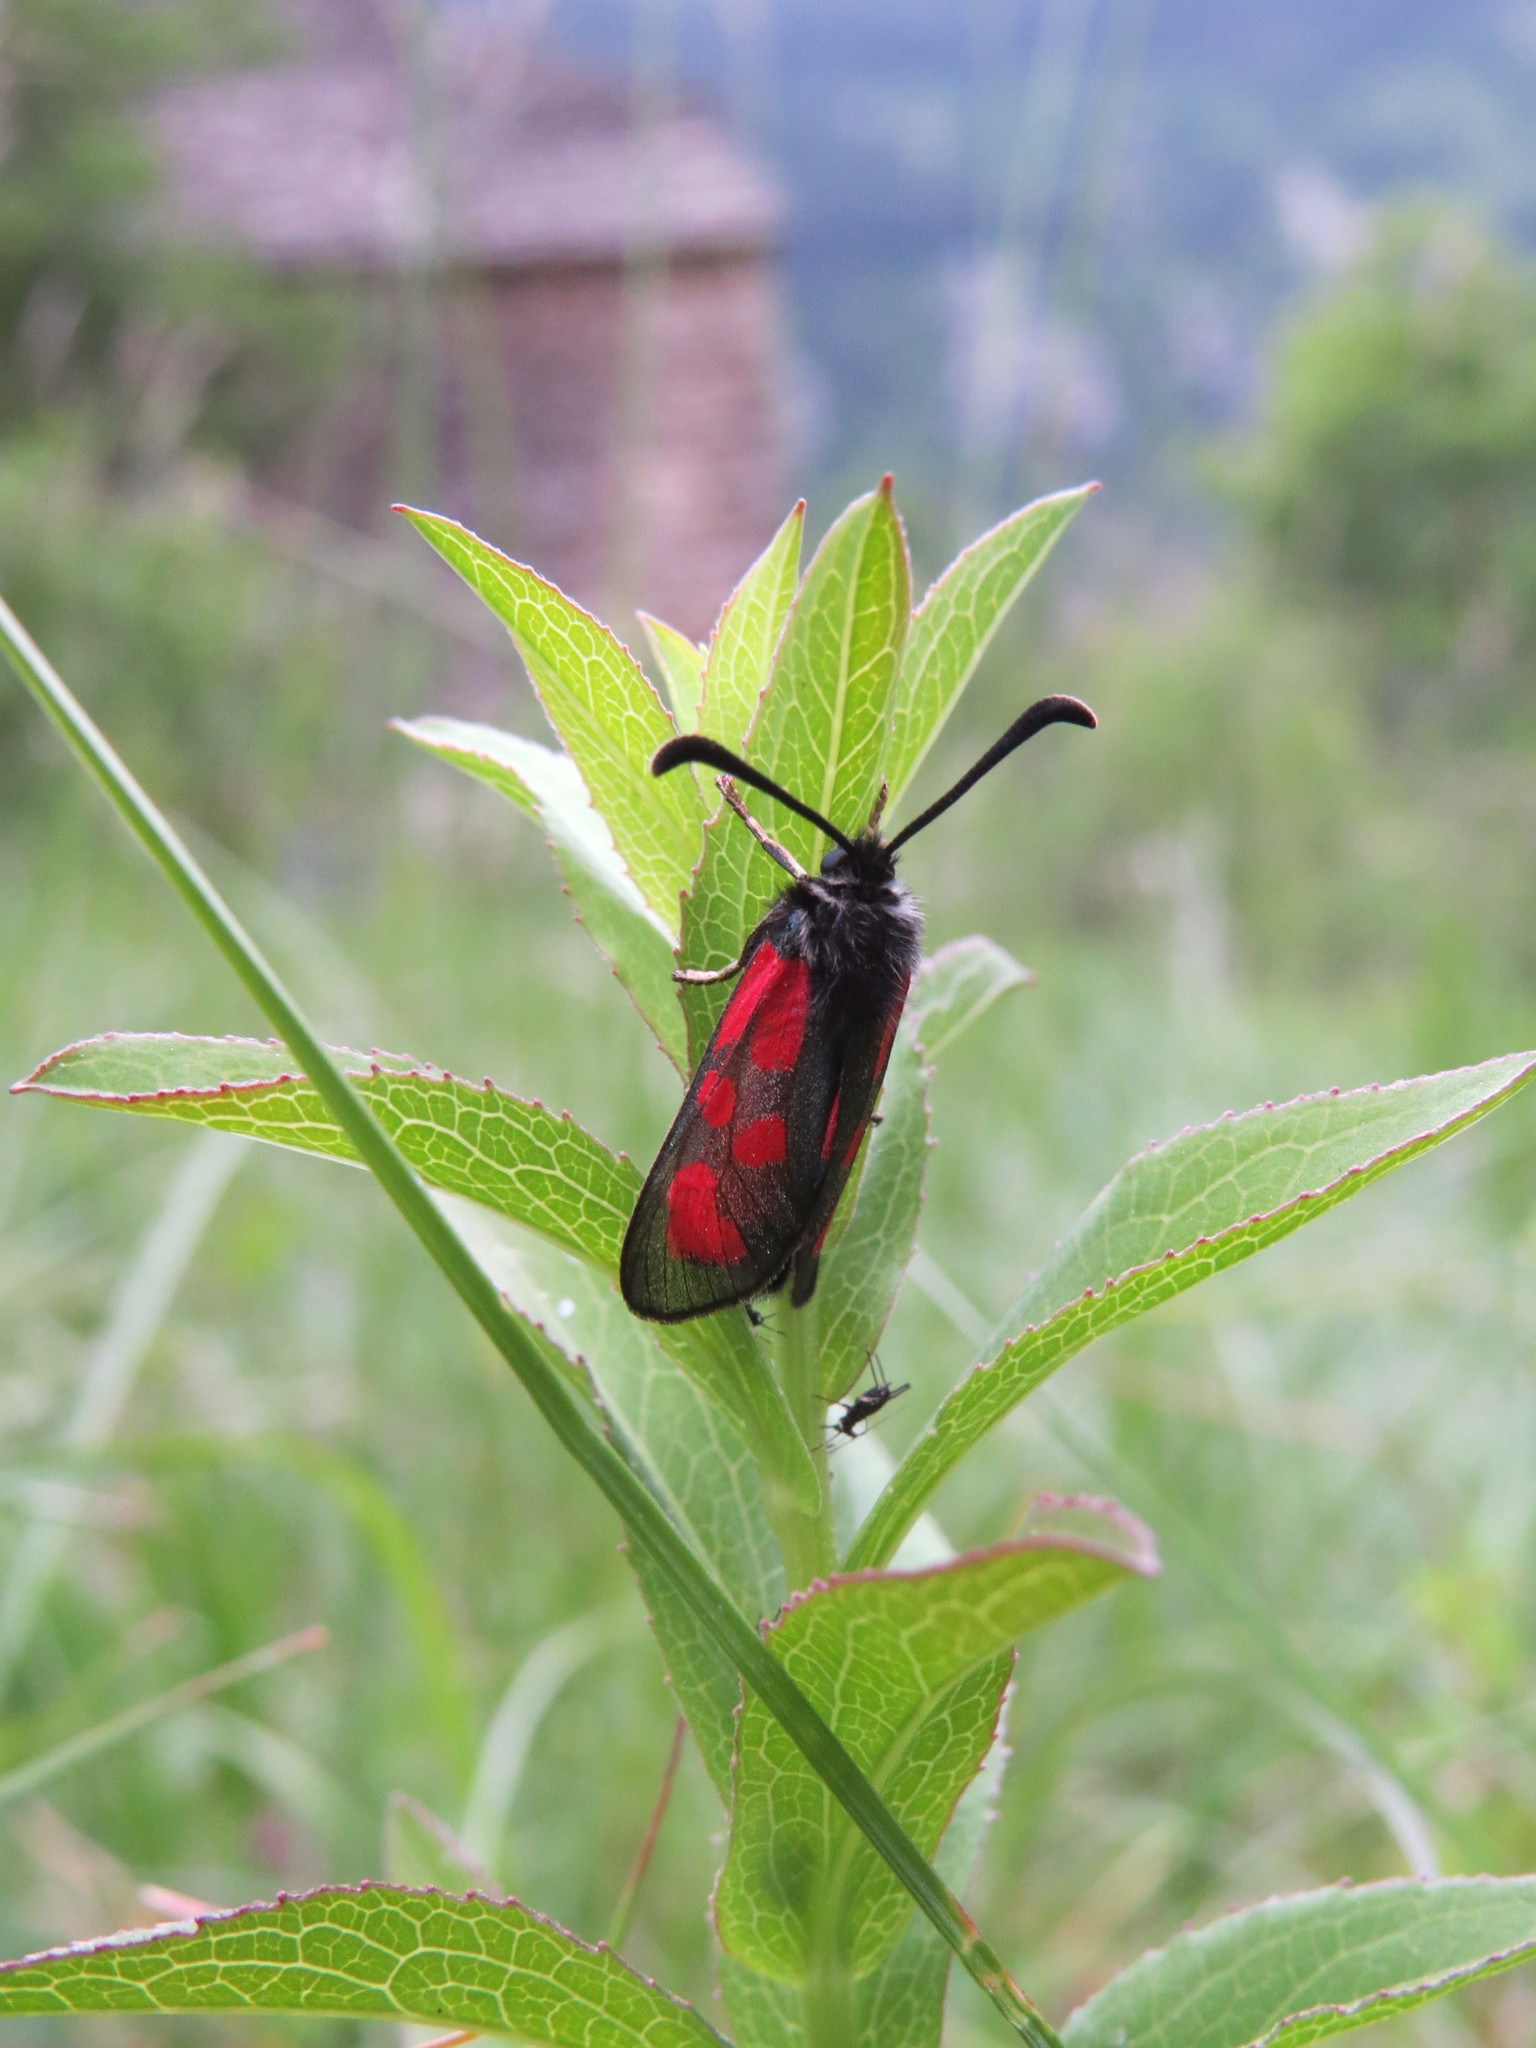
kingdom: Animalia
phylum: Arthropoda
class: Insecta
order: Lepidoptera
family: Zygaenidae
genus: Zygaena
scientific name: Zygaena loti
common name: Slender scotch burnet
